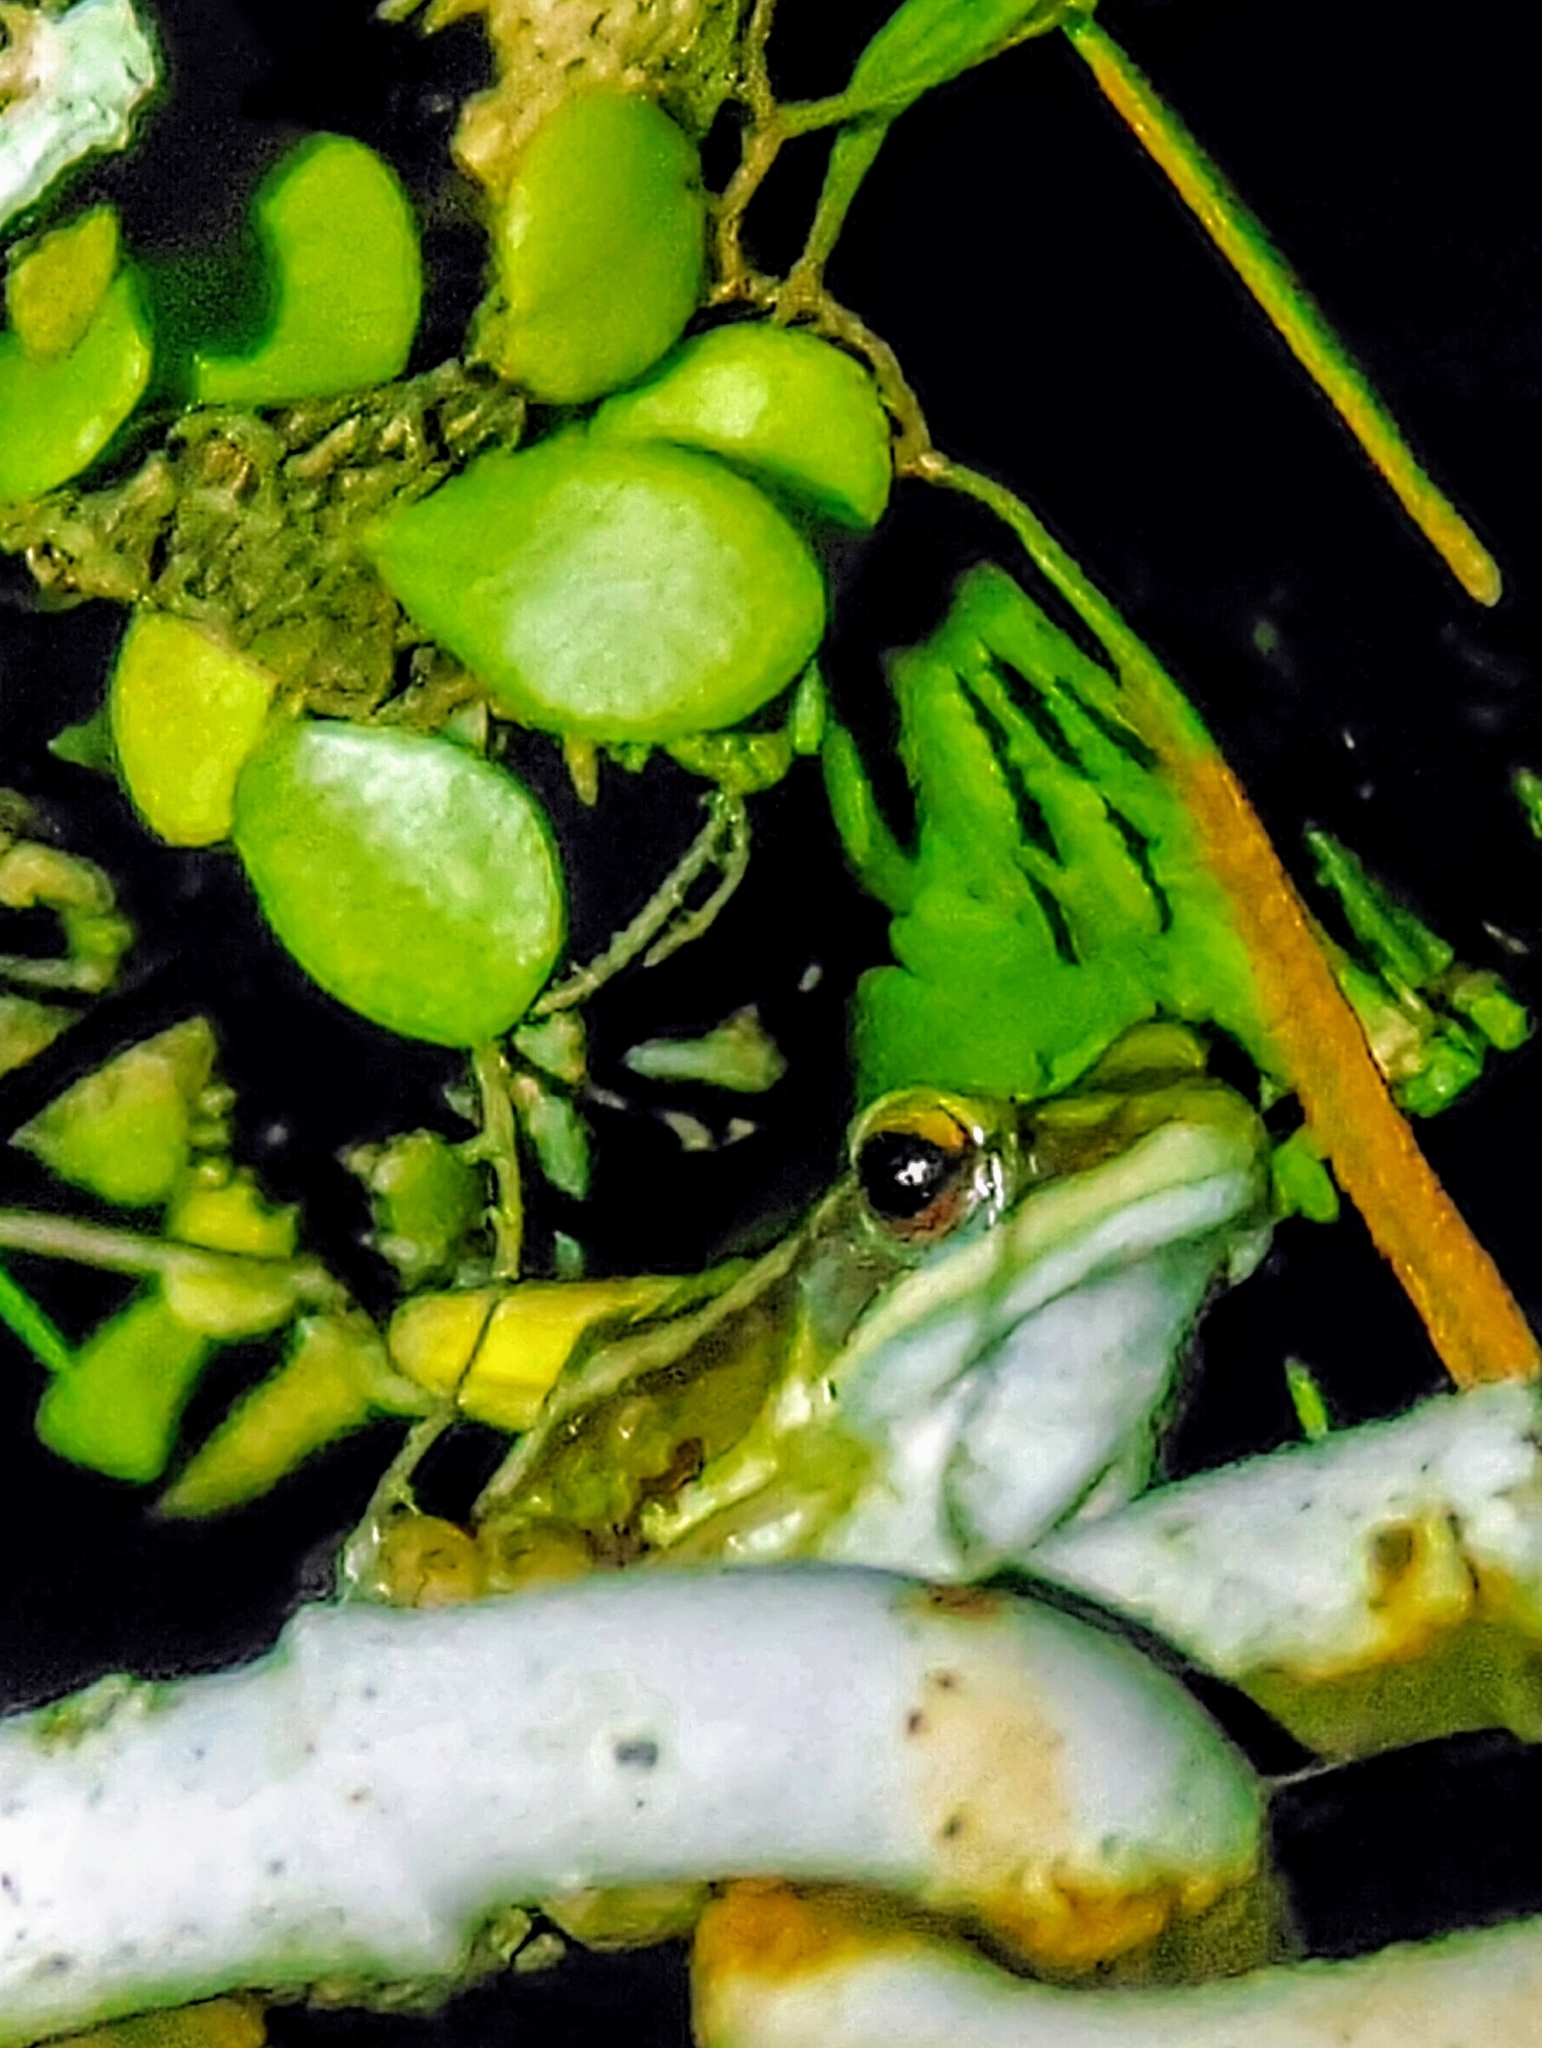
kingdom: Animalia
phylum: Chordata
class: Amphibia
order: Anura
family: Ranidae
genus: Hylarana
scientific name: Hylarana erythraea
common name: Common green frog/green paddy frog/leaf frog
